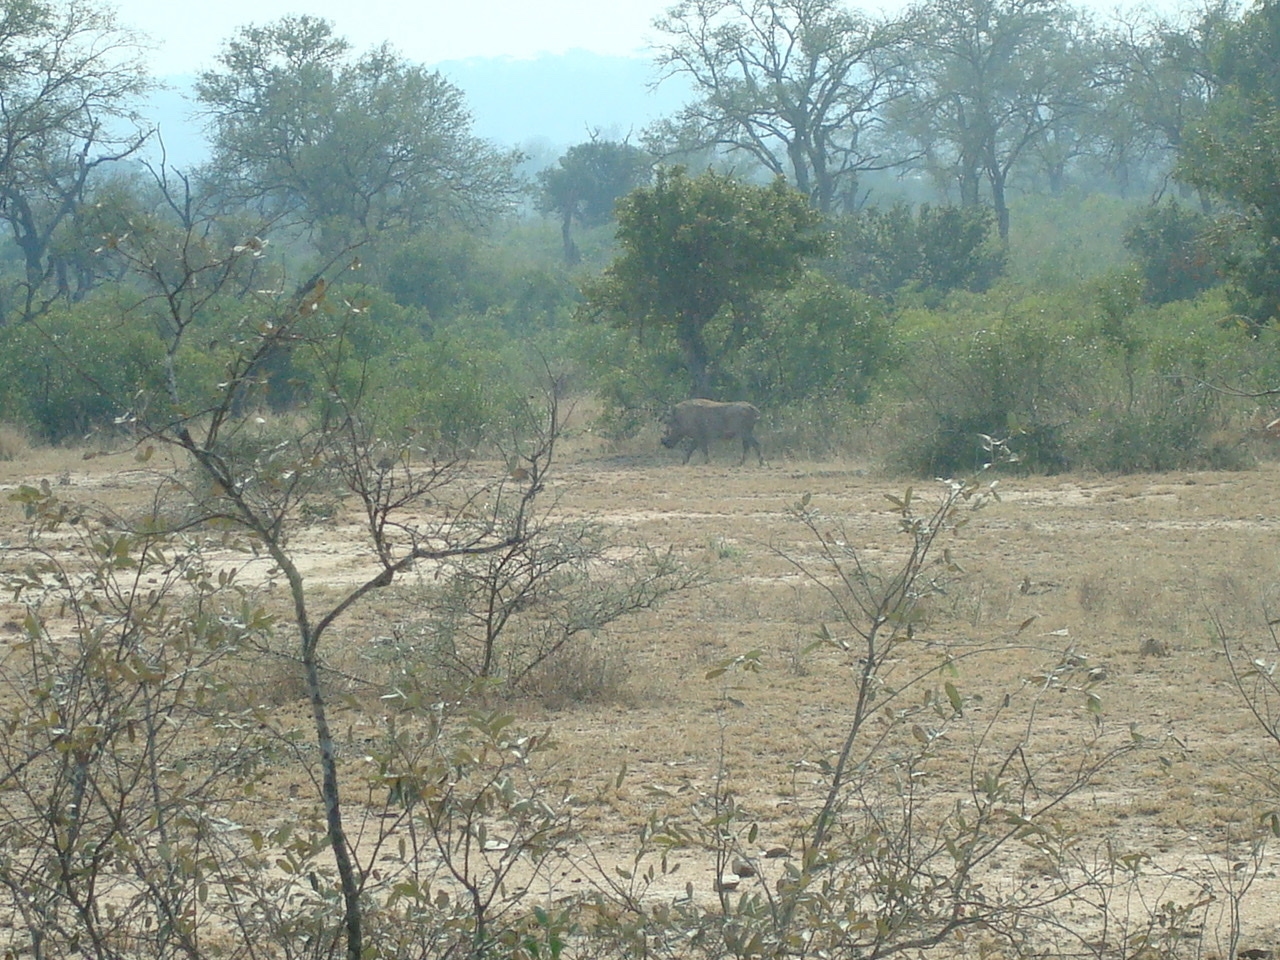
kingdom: Animalia
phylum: Chordata
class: Mammalia
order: Artiodactyla
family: Suidae
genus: Phacochoerus
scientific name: Phacochoerus africanus
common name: Common warthog
